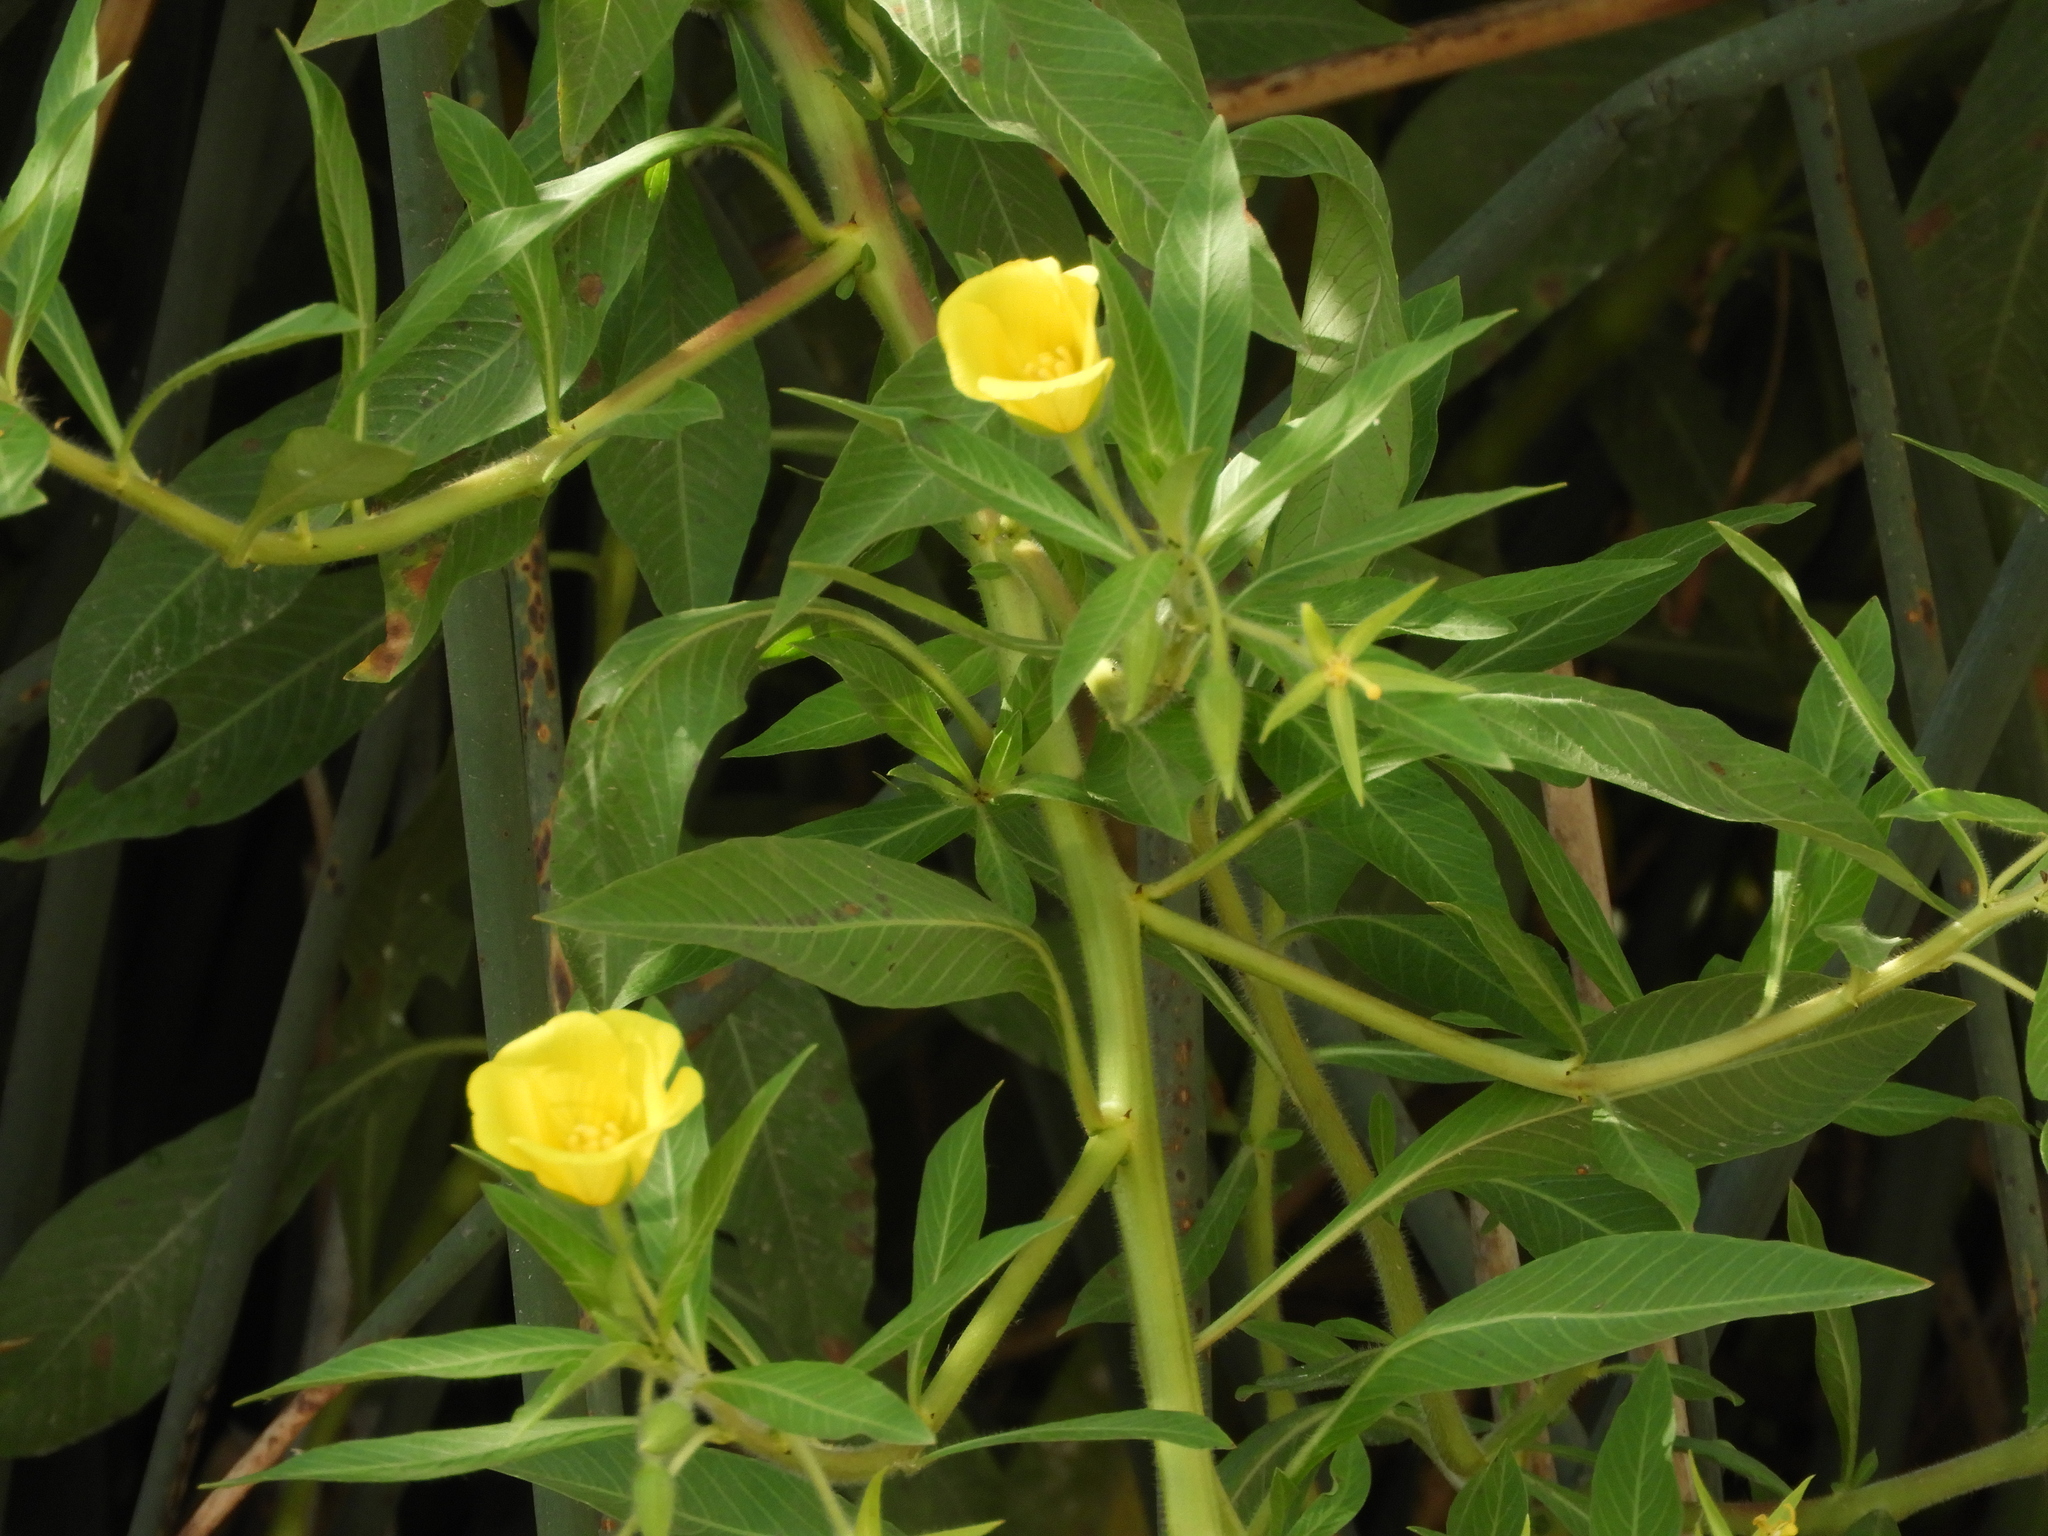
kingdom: Plantae
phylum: Tracheophyta
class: Magnoliopsida
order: Myrtales
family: Onagraceae
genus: Ludwigia
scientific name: Ludwigia hexapetala
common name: Water-primrose
